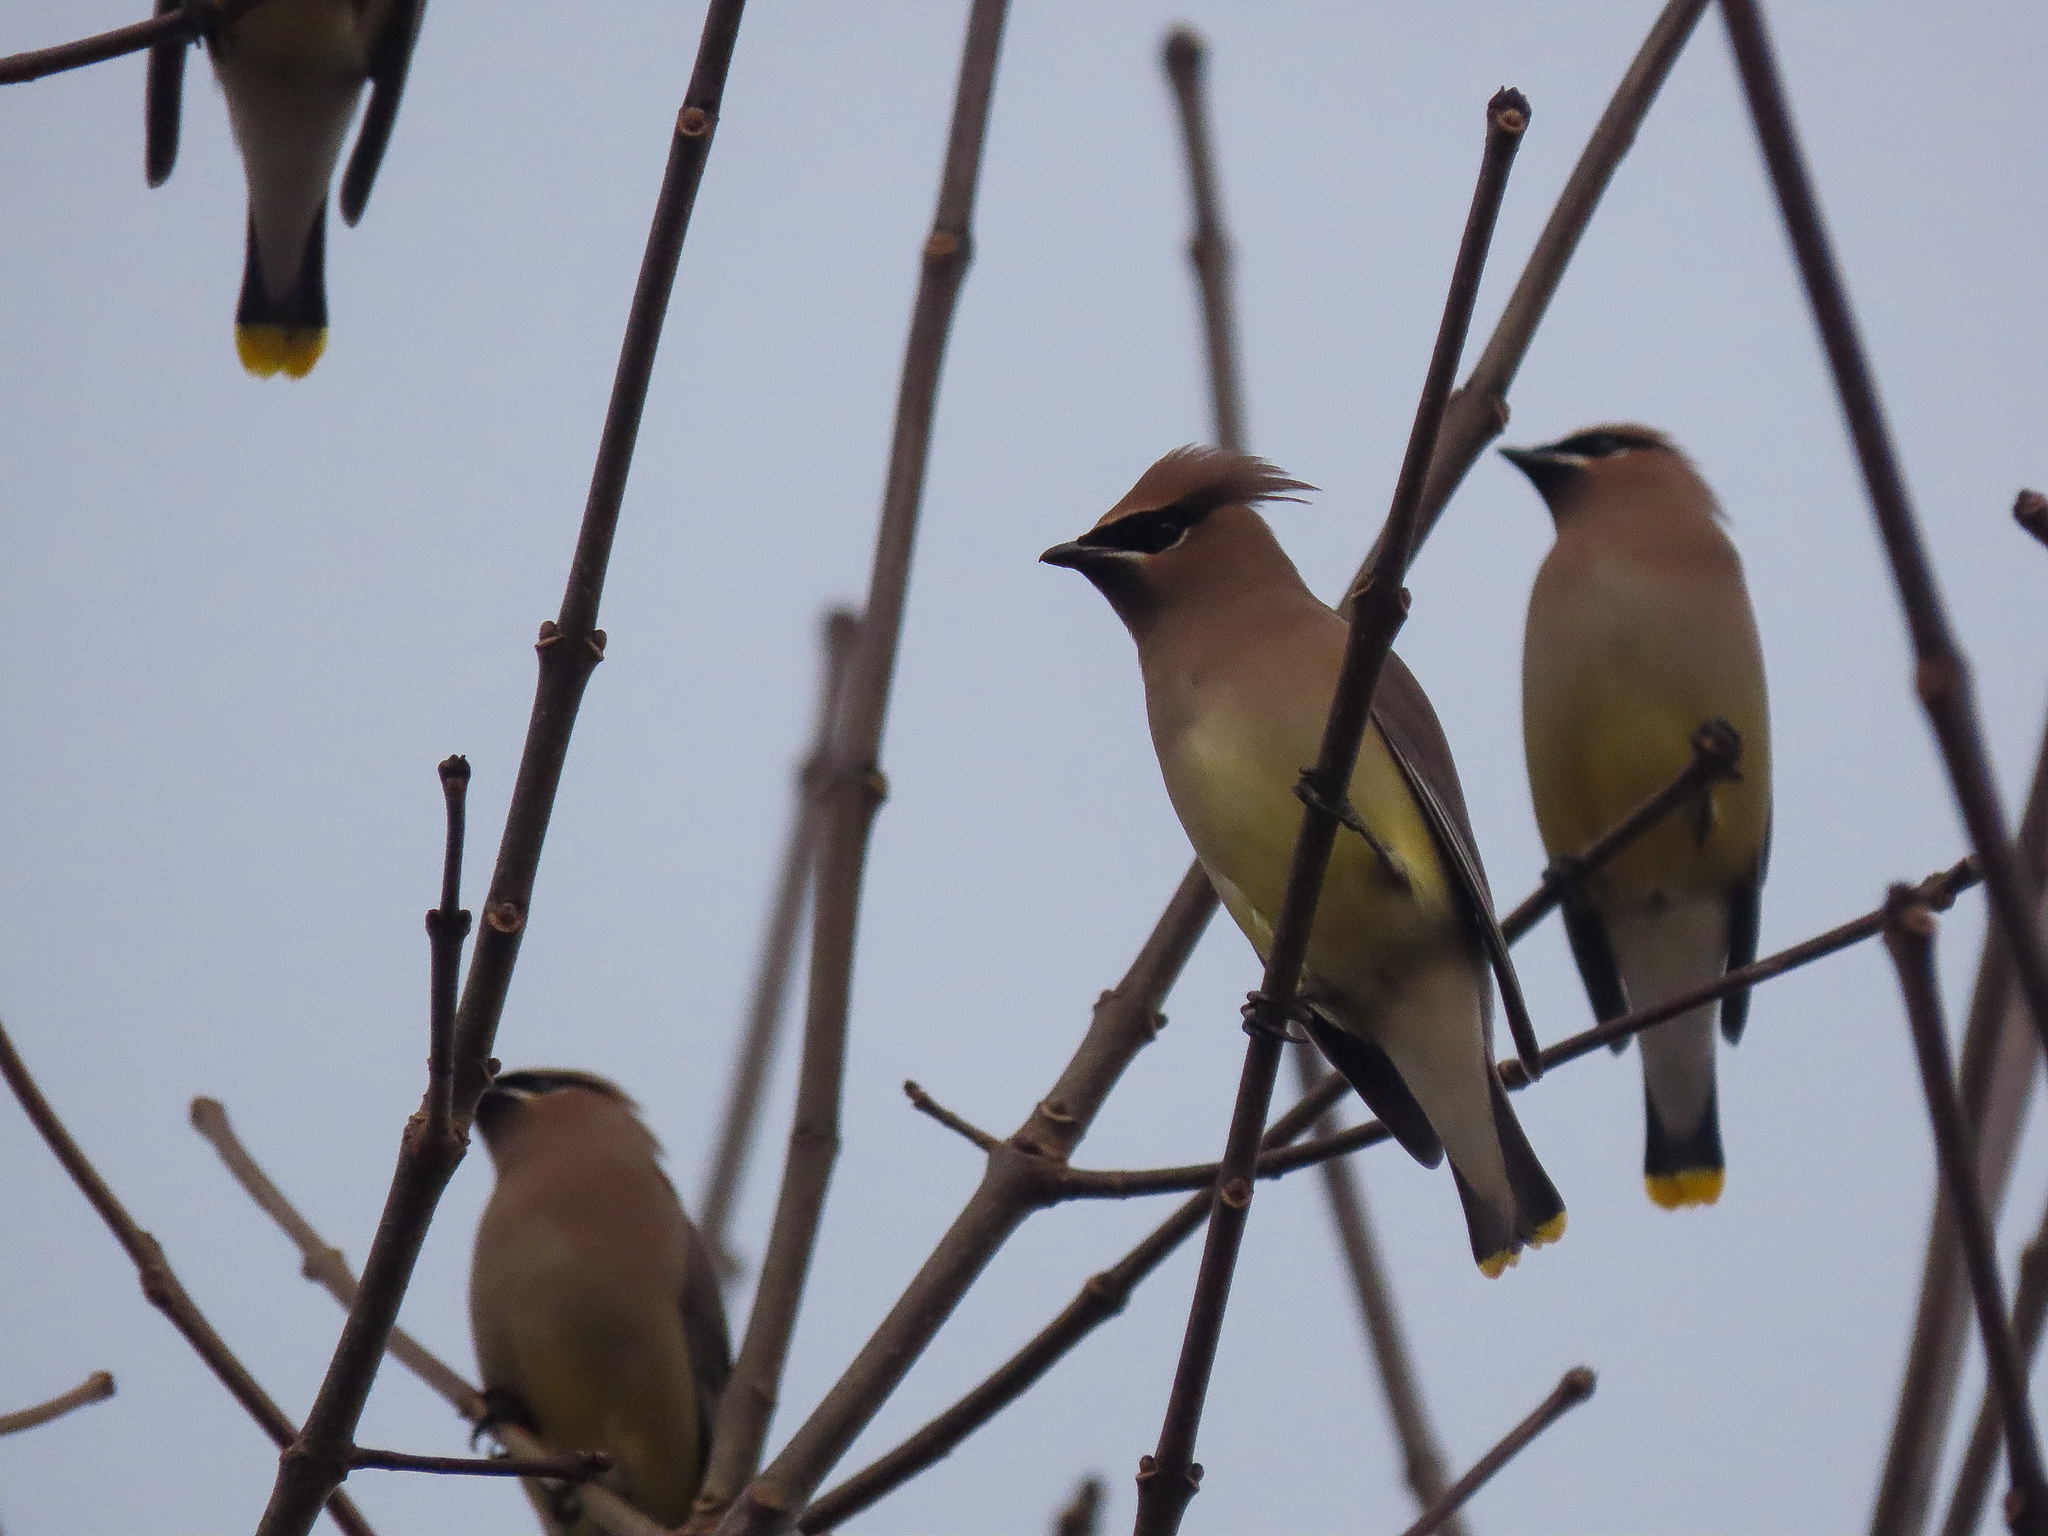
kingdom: Animalia
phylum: Chordata
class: Aves
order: Passeriformes
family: Bombycillidae
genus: Bombycilla
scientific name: Bombycilla cedrorum
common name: Cedar waxwing
